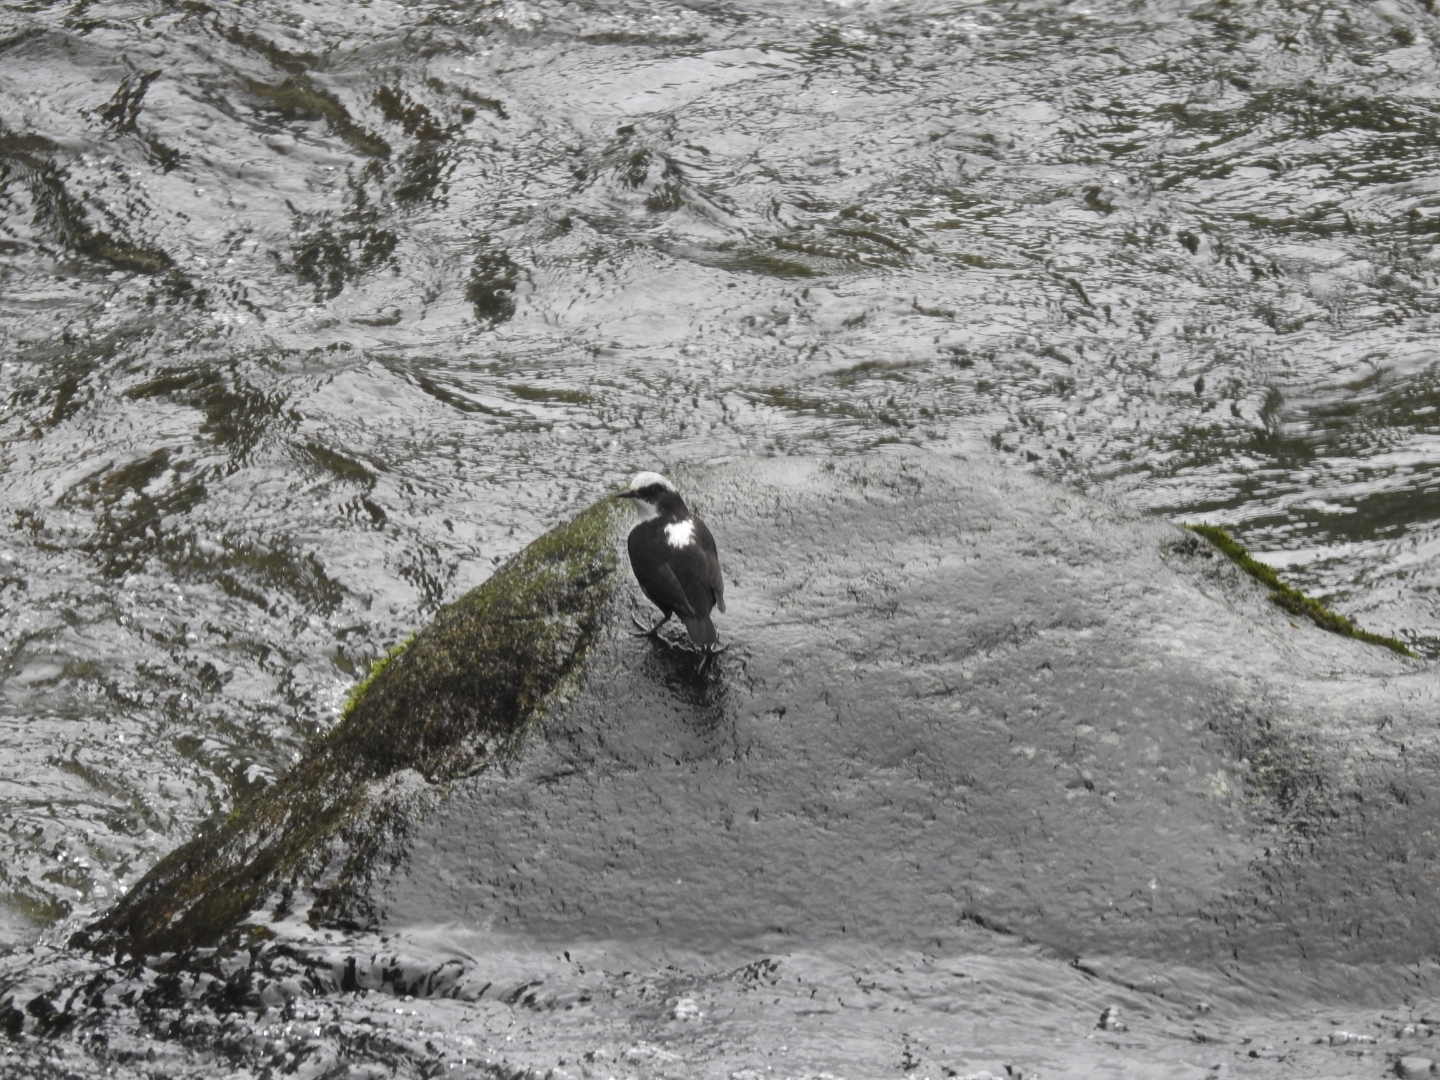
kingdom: Animalia
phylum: Chordata
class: Aves
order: Passeriformes
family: Cinclidae
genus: Cinclus
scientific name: Cinclus leucocephalus
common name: White-capped dipper
